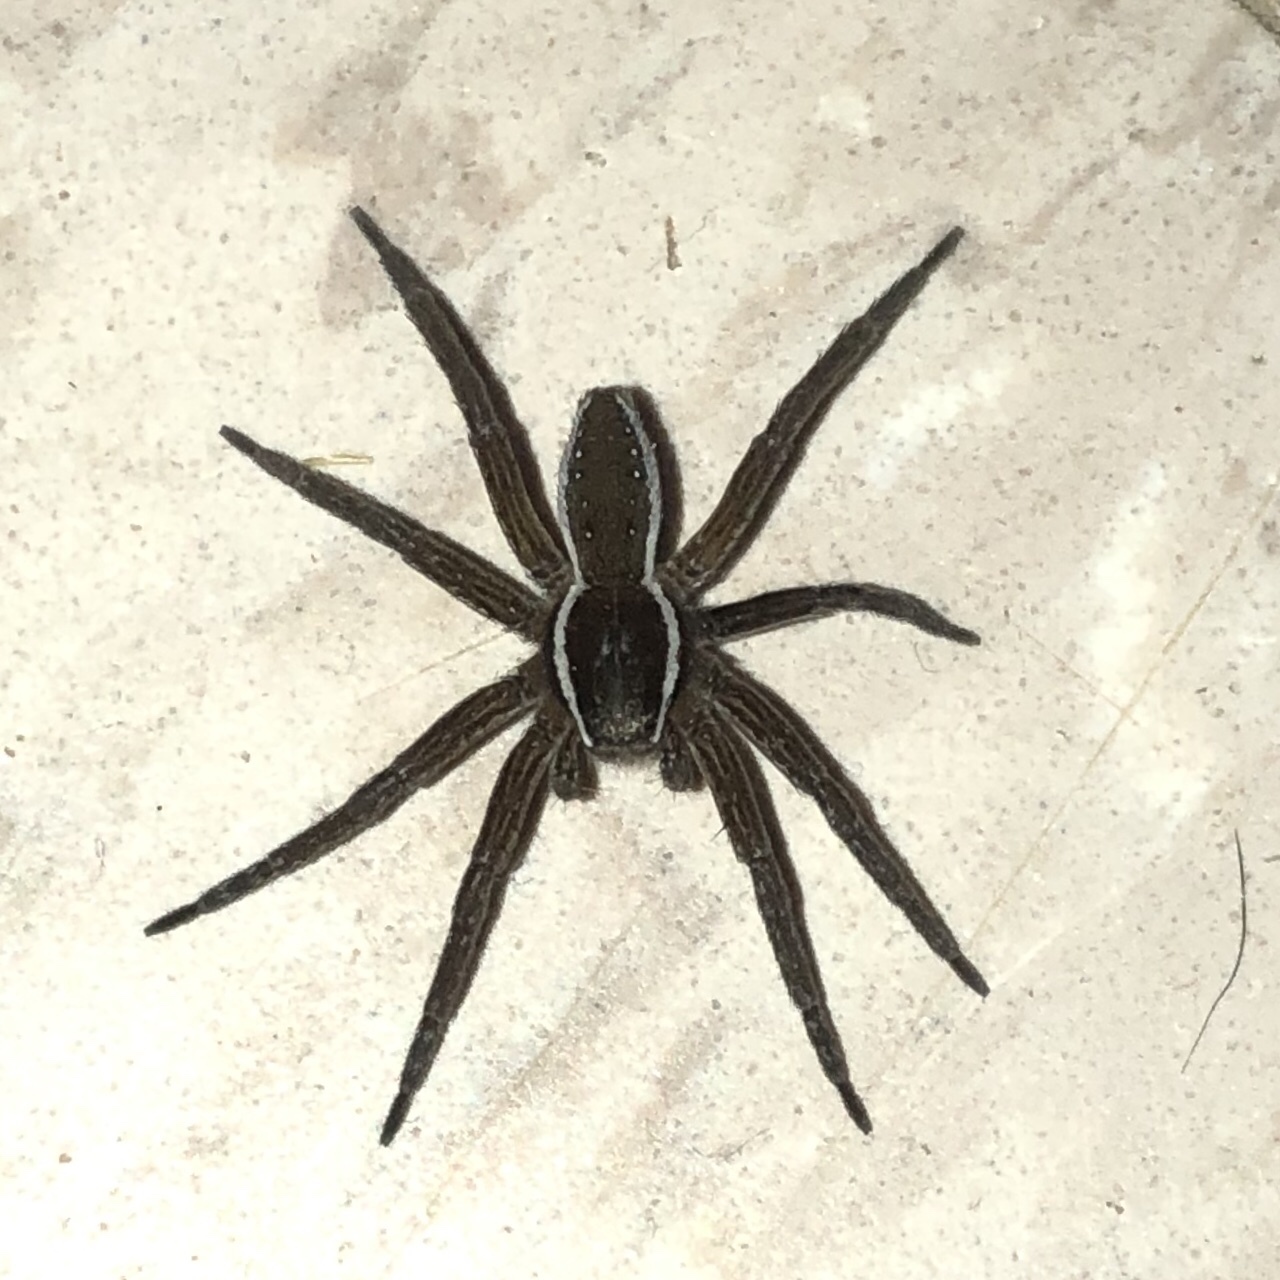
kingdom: Animalia
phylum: Arthropoda
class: Arachnida
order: Araneae
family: Pisauridae
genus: Dolomedes
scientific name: Dolomedes triton
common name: Six-spotted fishing spider
